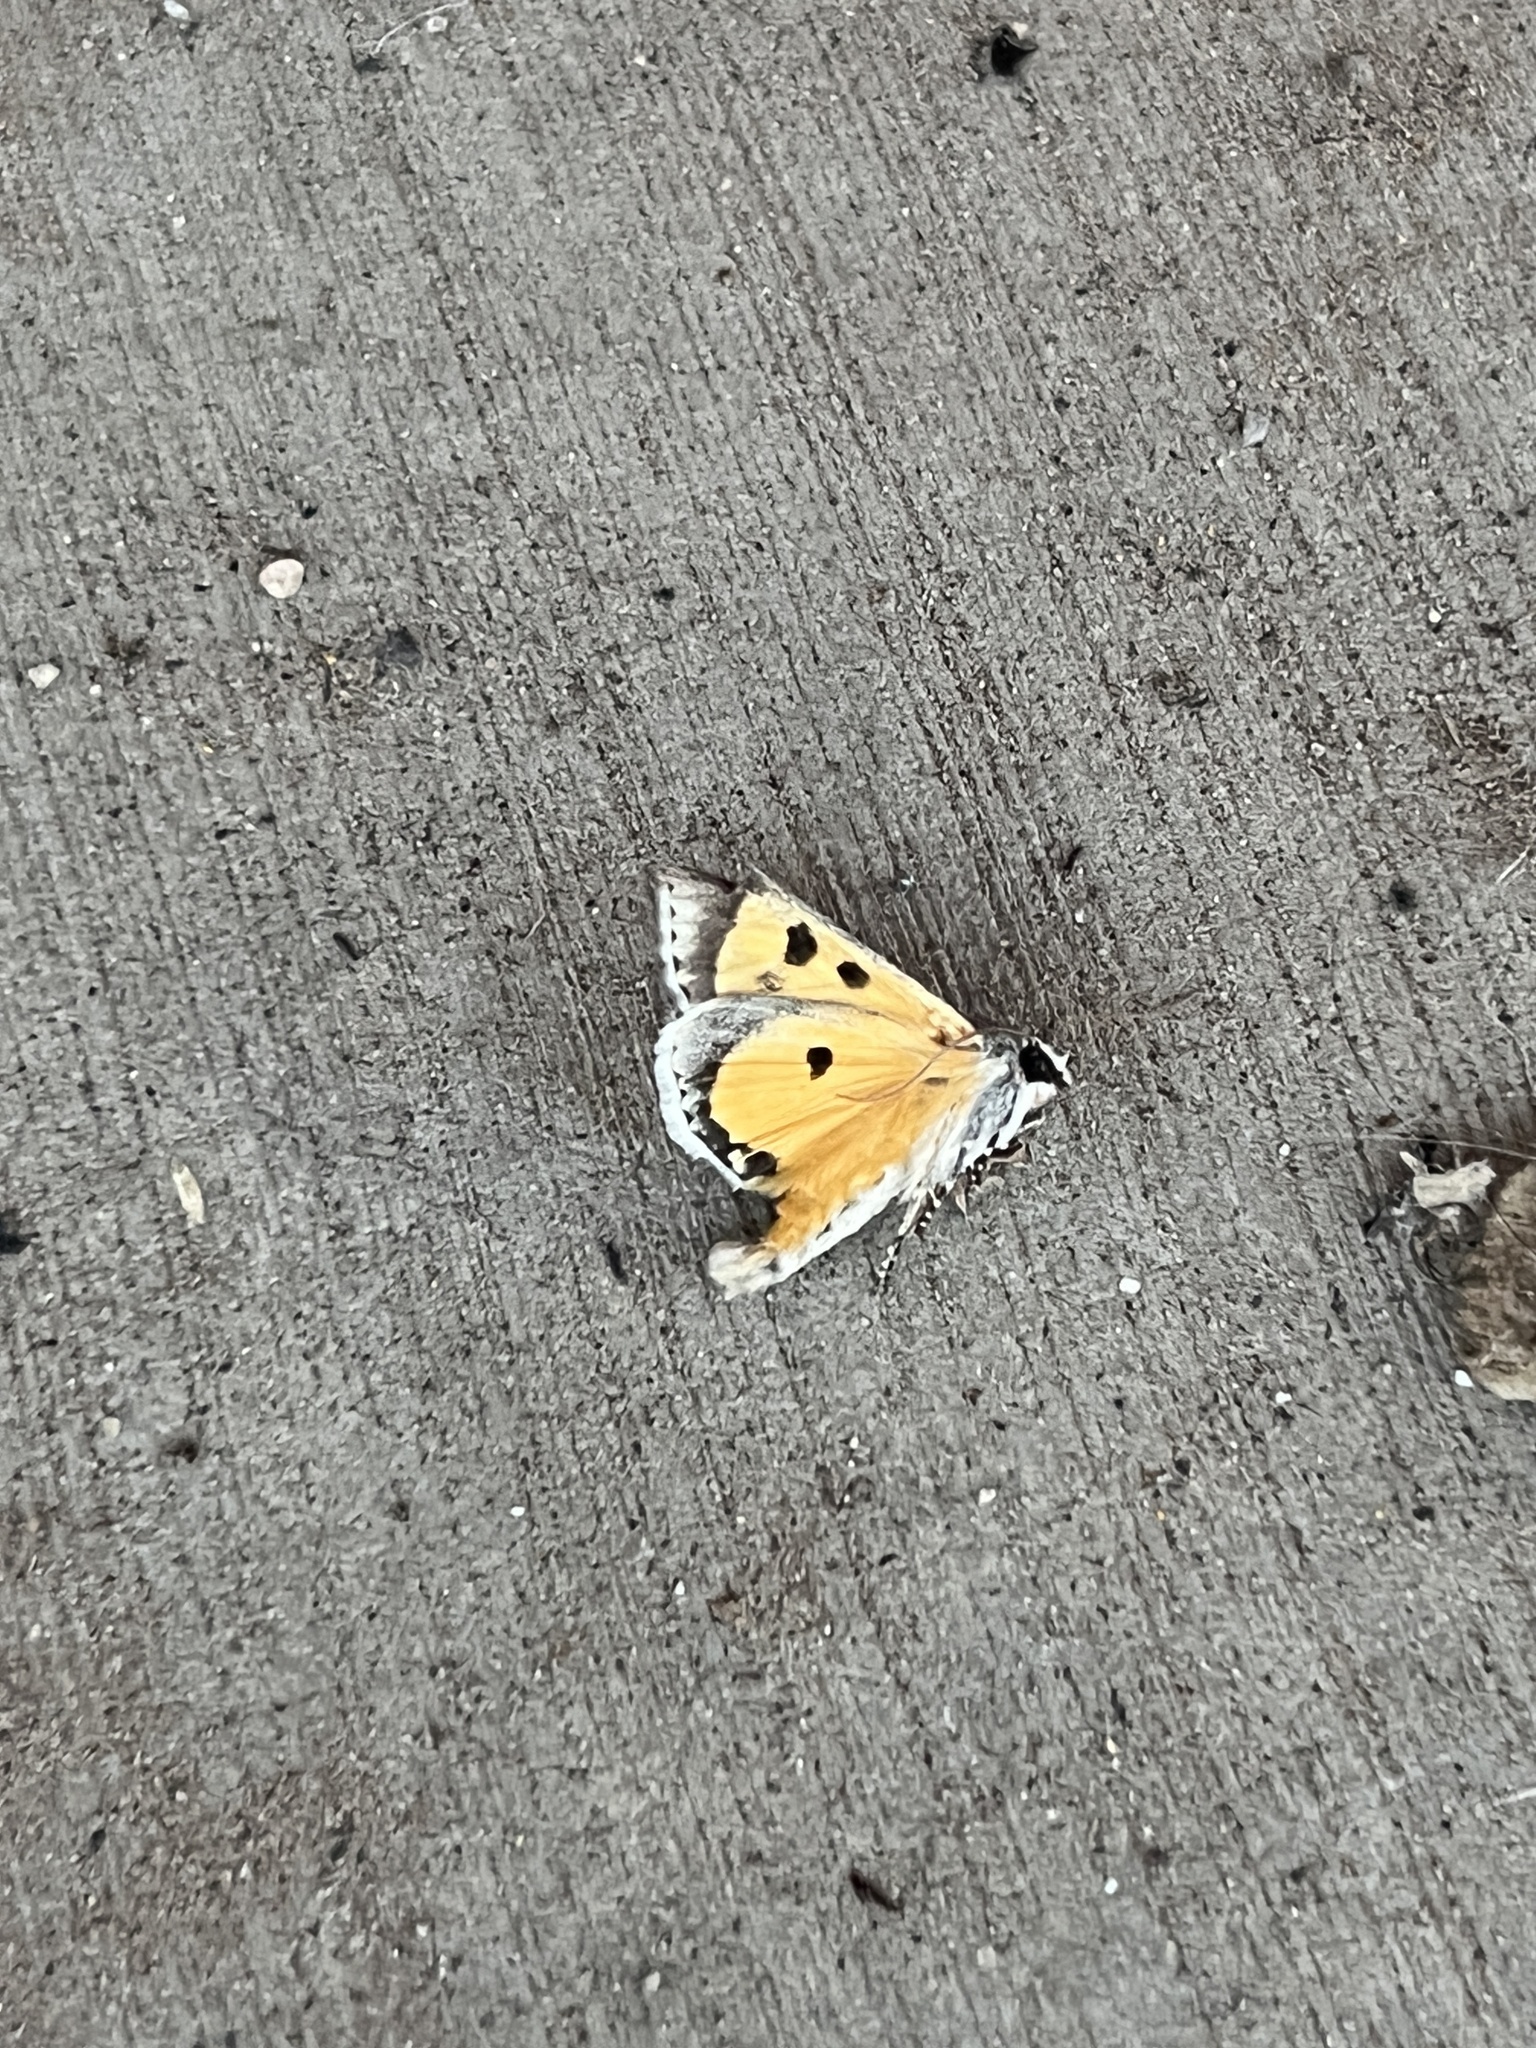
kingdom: Animalia
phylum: Arthropoda
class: Insecta
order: Lepidoptera
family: Noctuidae
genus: Euscirrhopterus
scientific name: Euscirrhopterus gloveri
